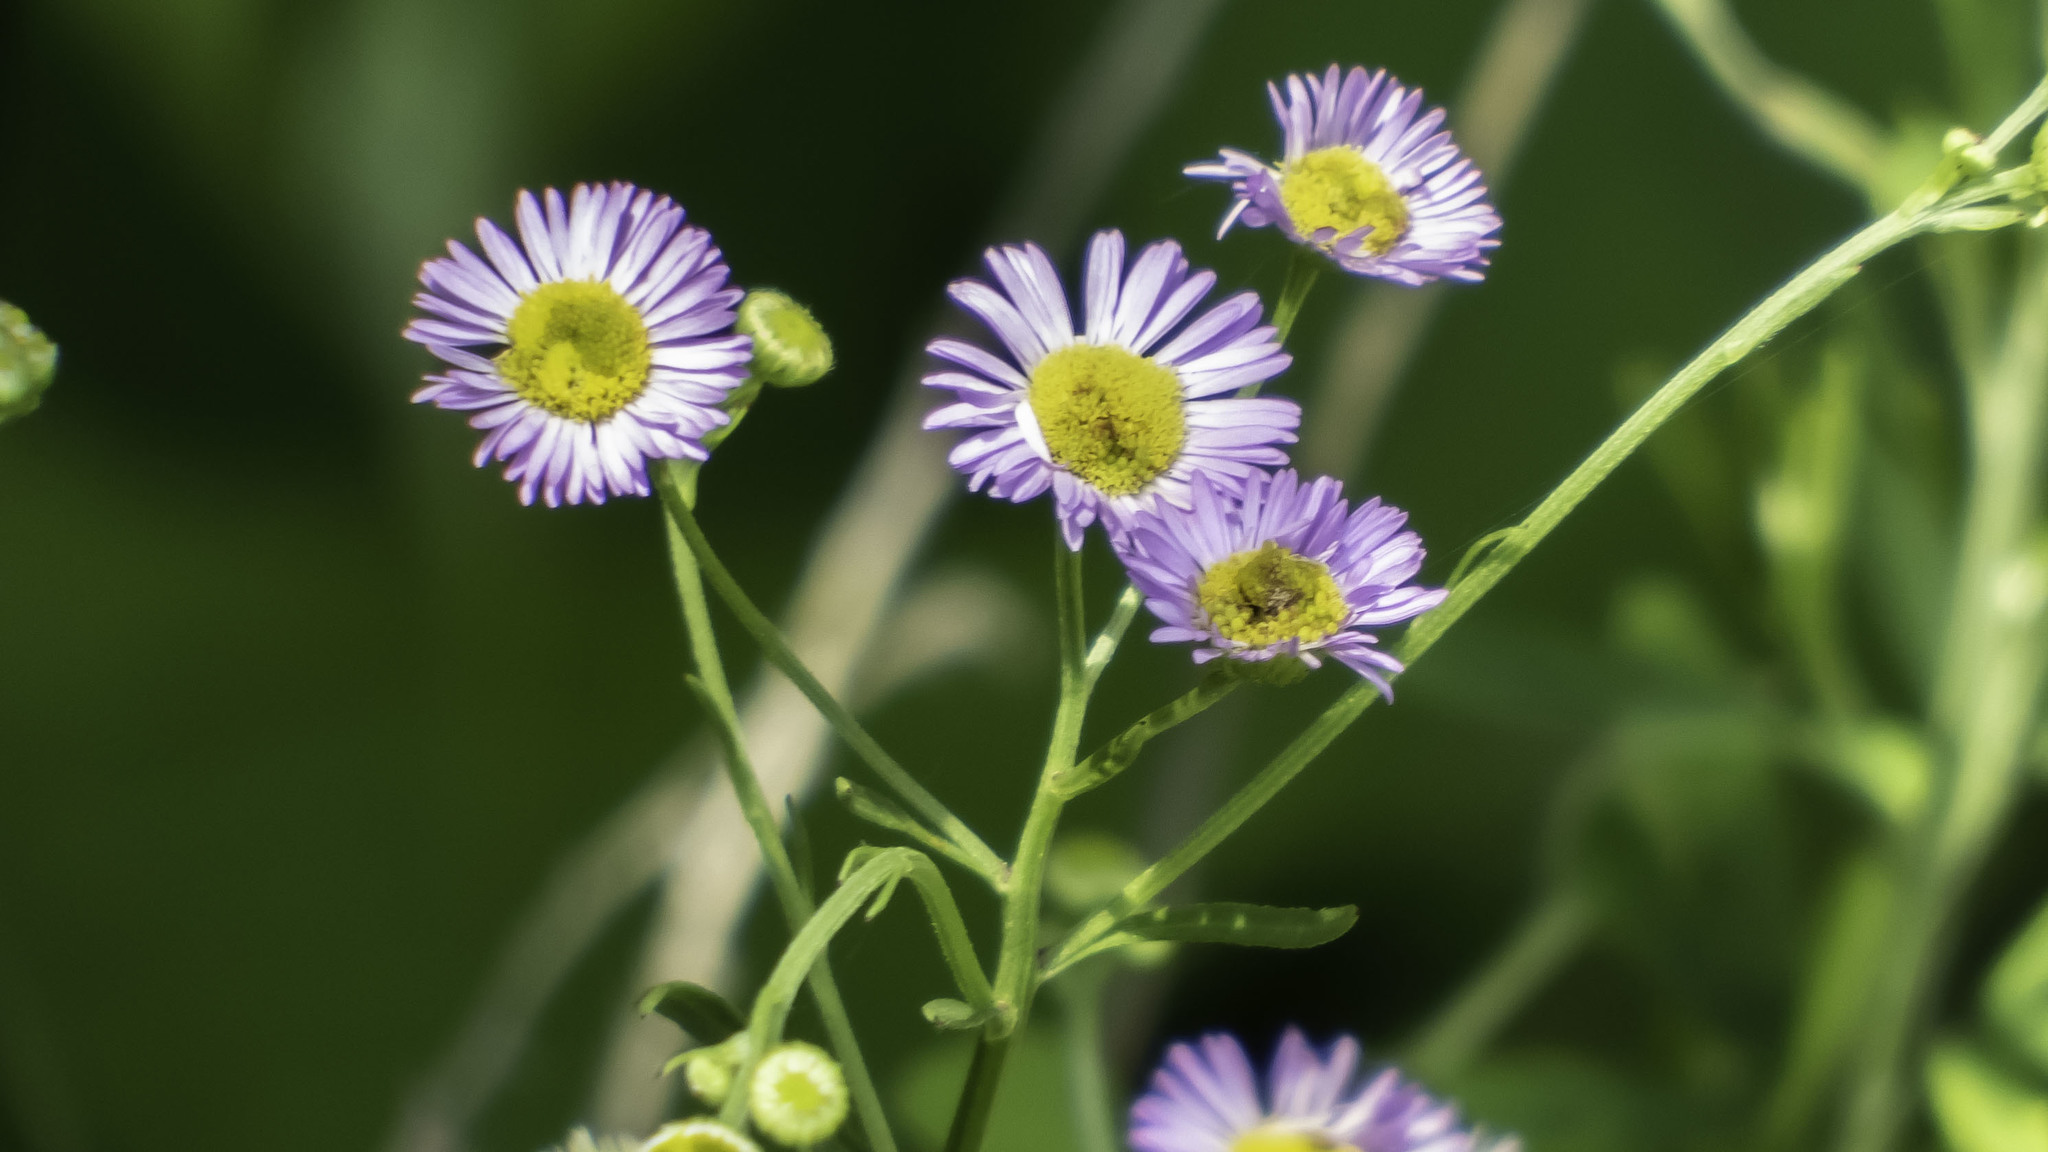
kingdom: Plantae
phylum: Tracheophyta
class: Magnoliopsida
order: Asterales
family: Asteraceae
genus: Erigeron
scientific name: Erigeron strigosus
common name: Common eastern fleabane
